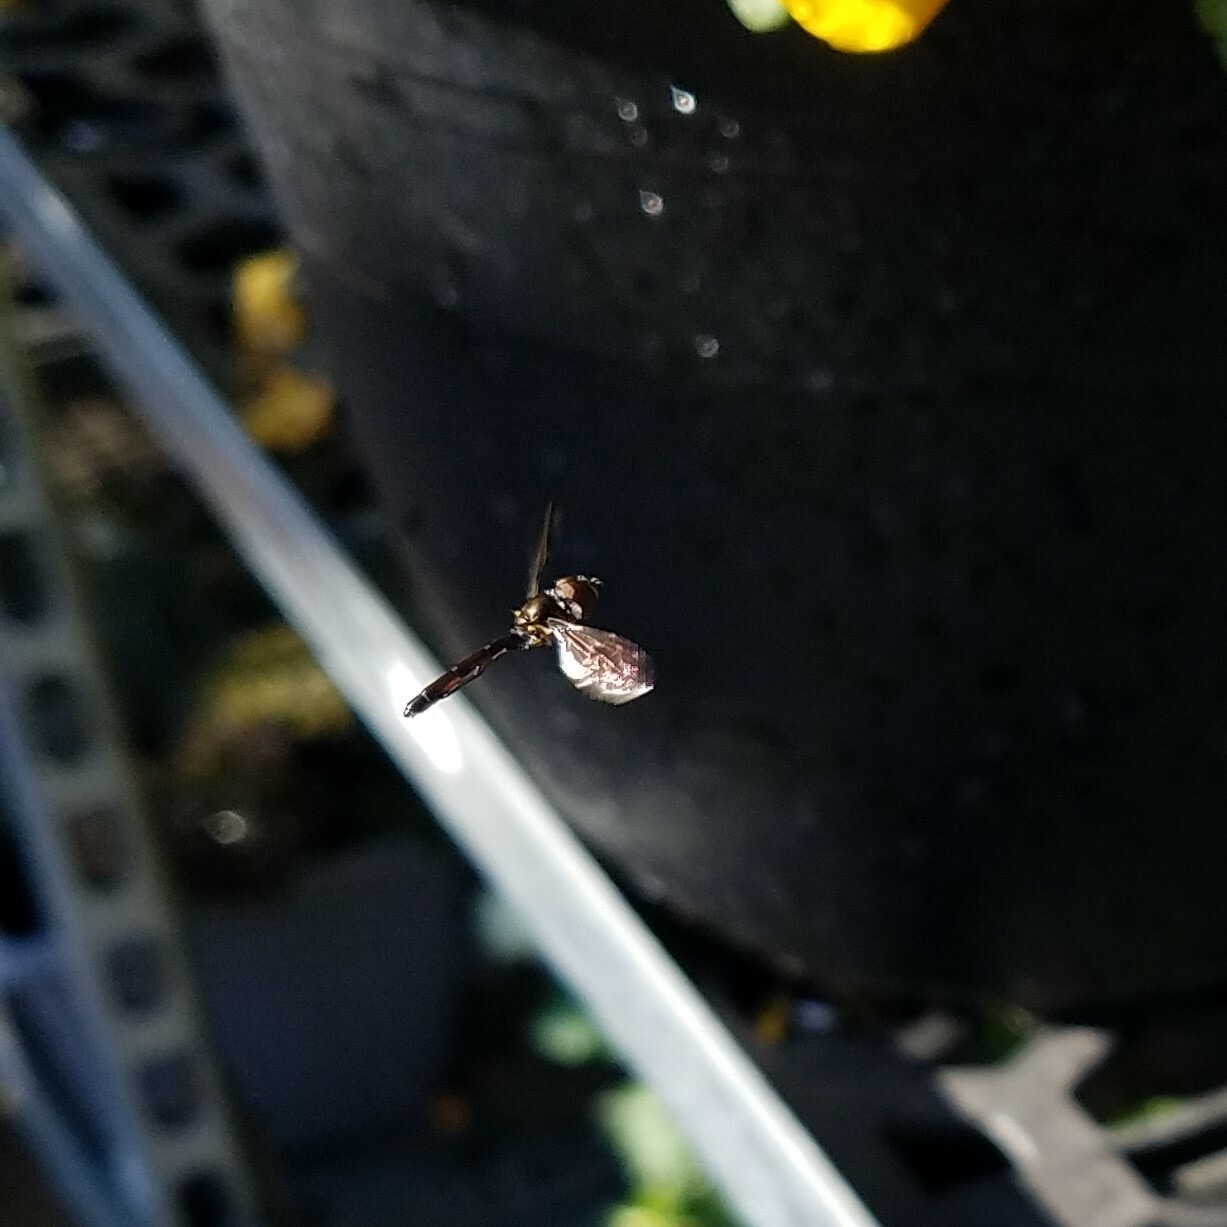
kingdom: Animalia
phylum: Arthropoda
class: Insecta
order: Diptera
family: Syrphidae
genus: Ocyptamus
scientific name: Ocyptamus fuscipennis
